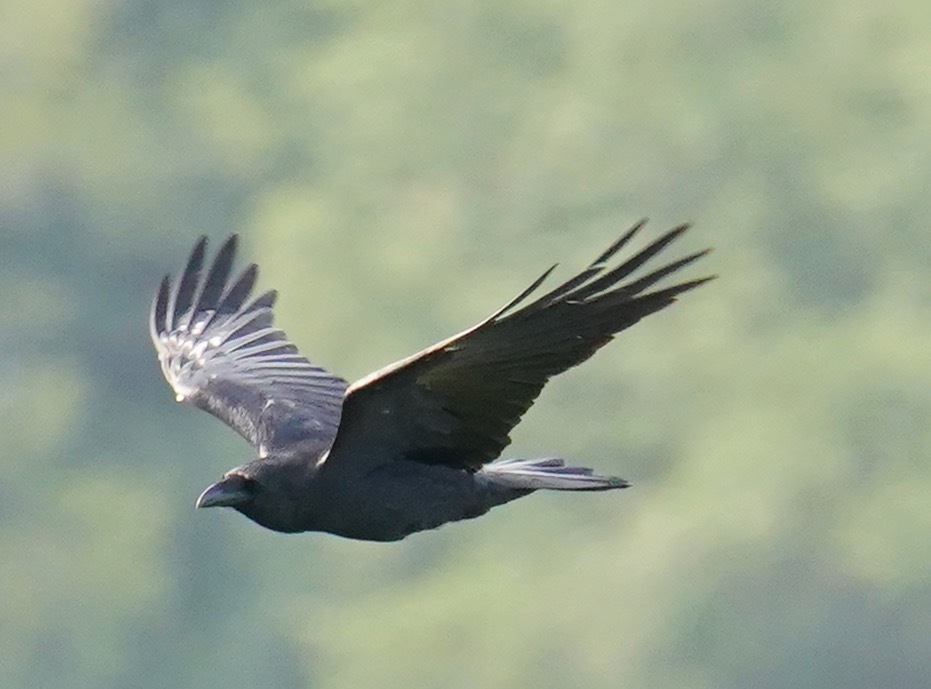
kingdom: Animalia
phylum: Chordata
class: Aves
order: Passeriformes
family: Corvidae
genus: Corvus
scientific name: Corvus corax
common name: Common raven
